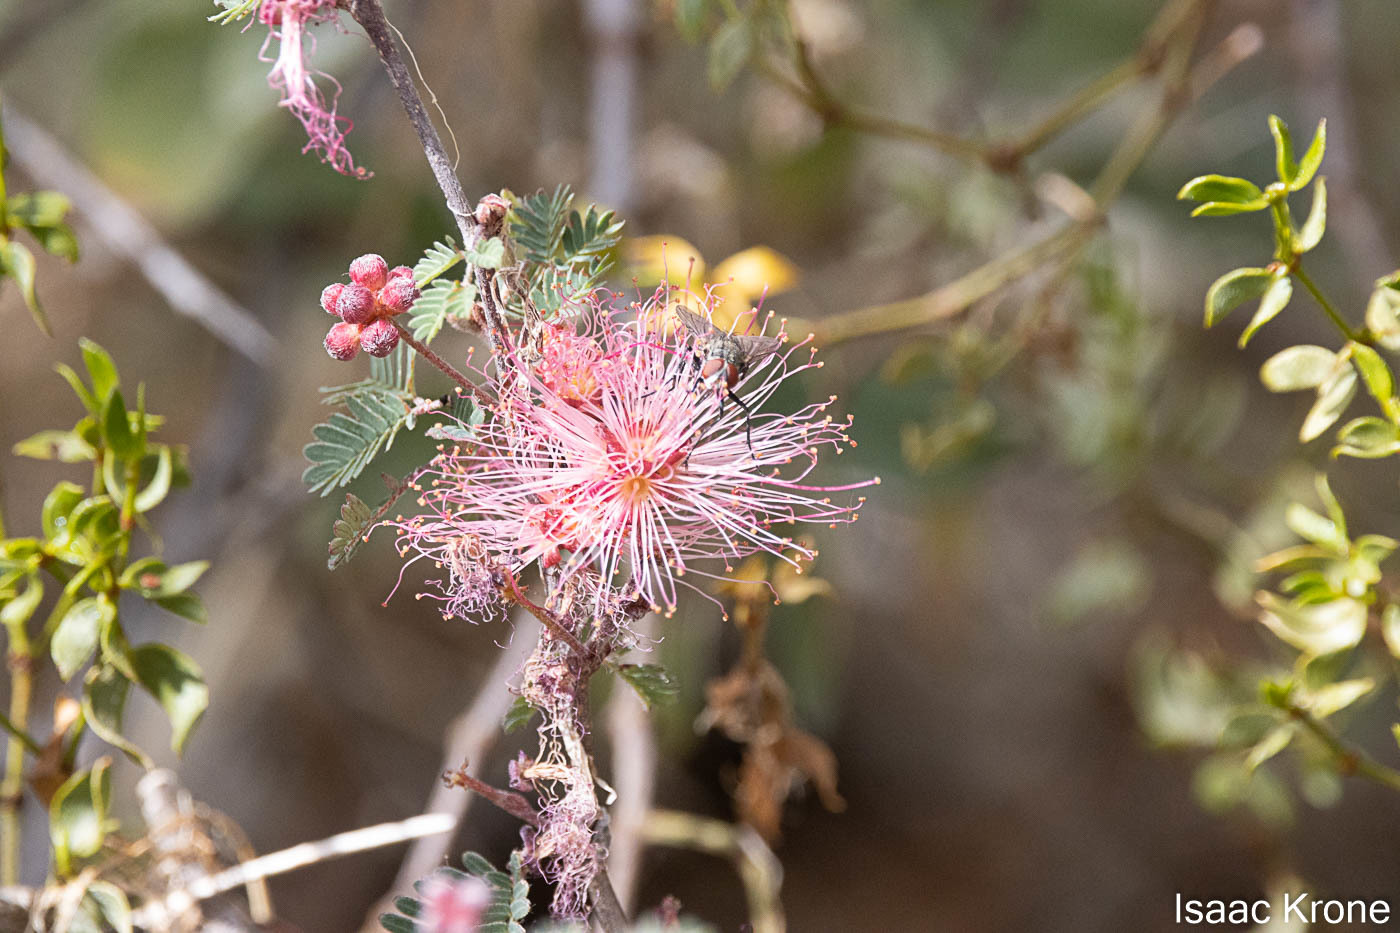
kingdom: Plantae
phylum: Tracheophyta
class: Magnoliopsida
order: Fabales
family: Fabaceae
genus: Calliandra
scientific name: Calliandra eriophylla
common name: Fairy-duster
